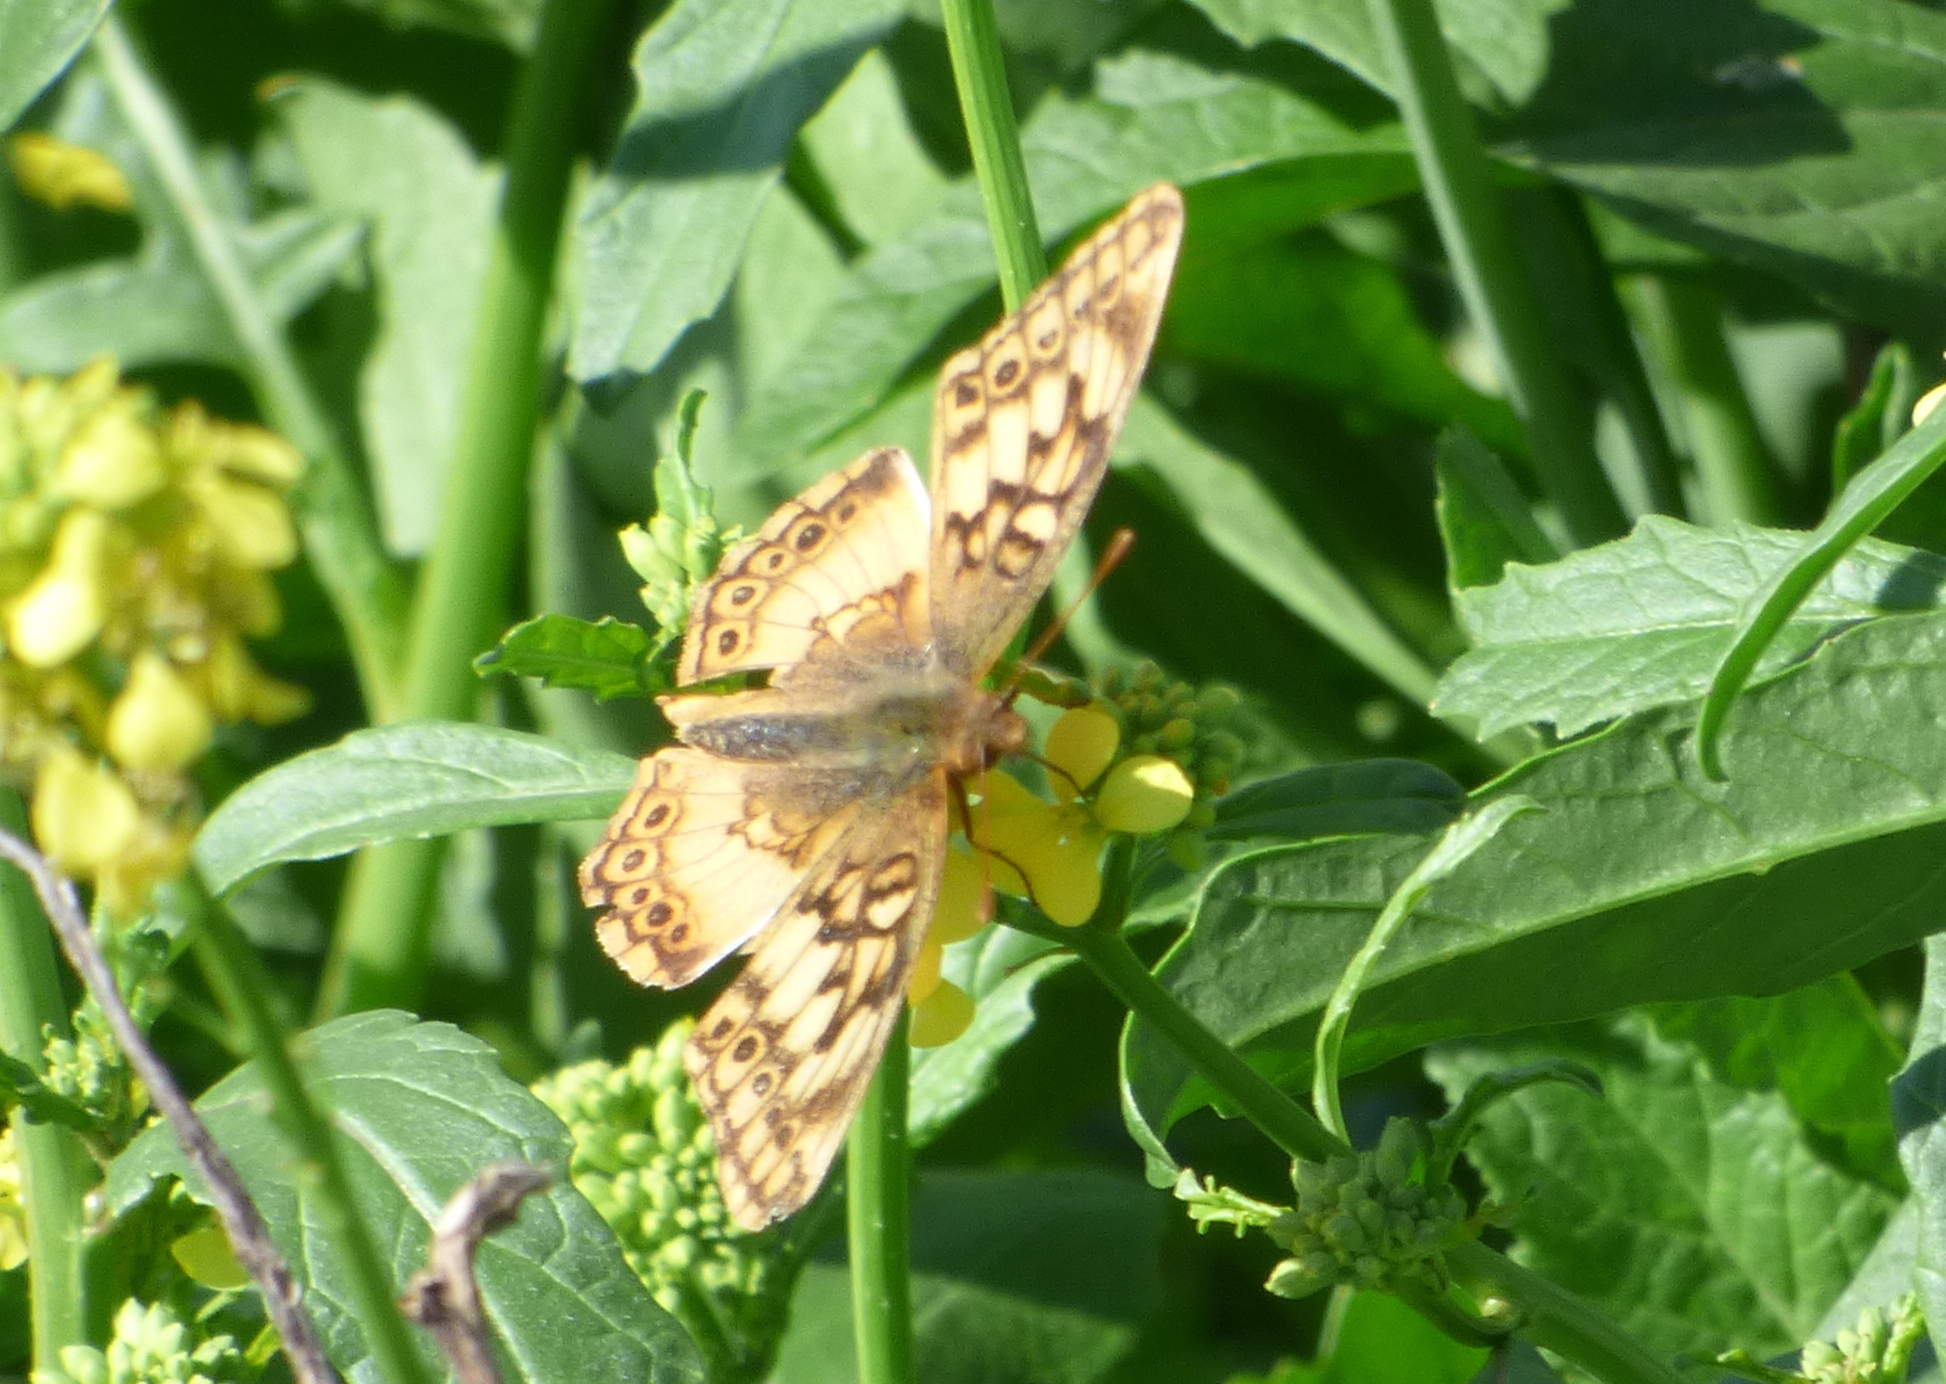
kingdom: Animalia
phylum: Arthropoda
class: Insecta
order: Lepidoptera
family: Nymphalidae
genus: Euptoieta
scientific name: Euptoieta hortensia
